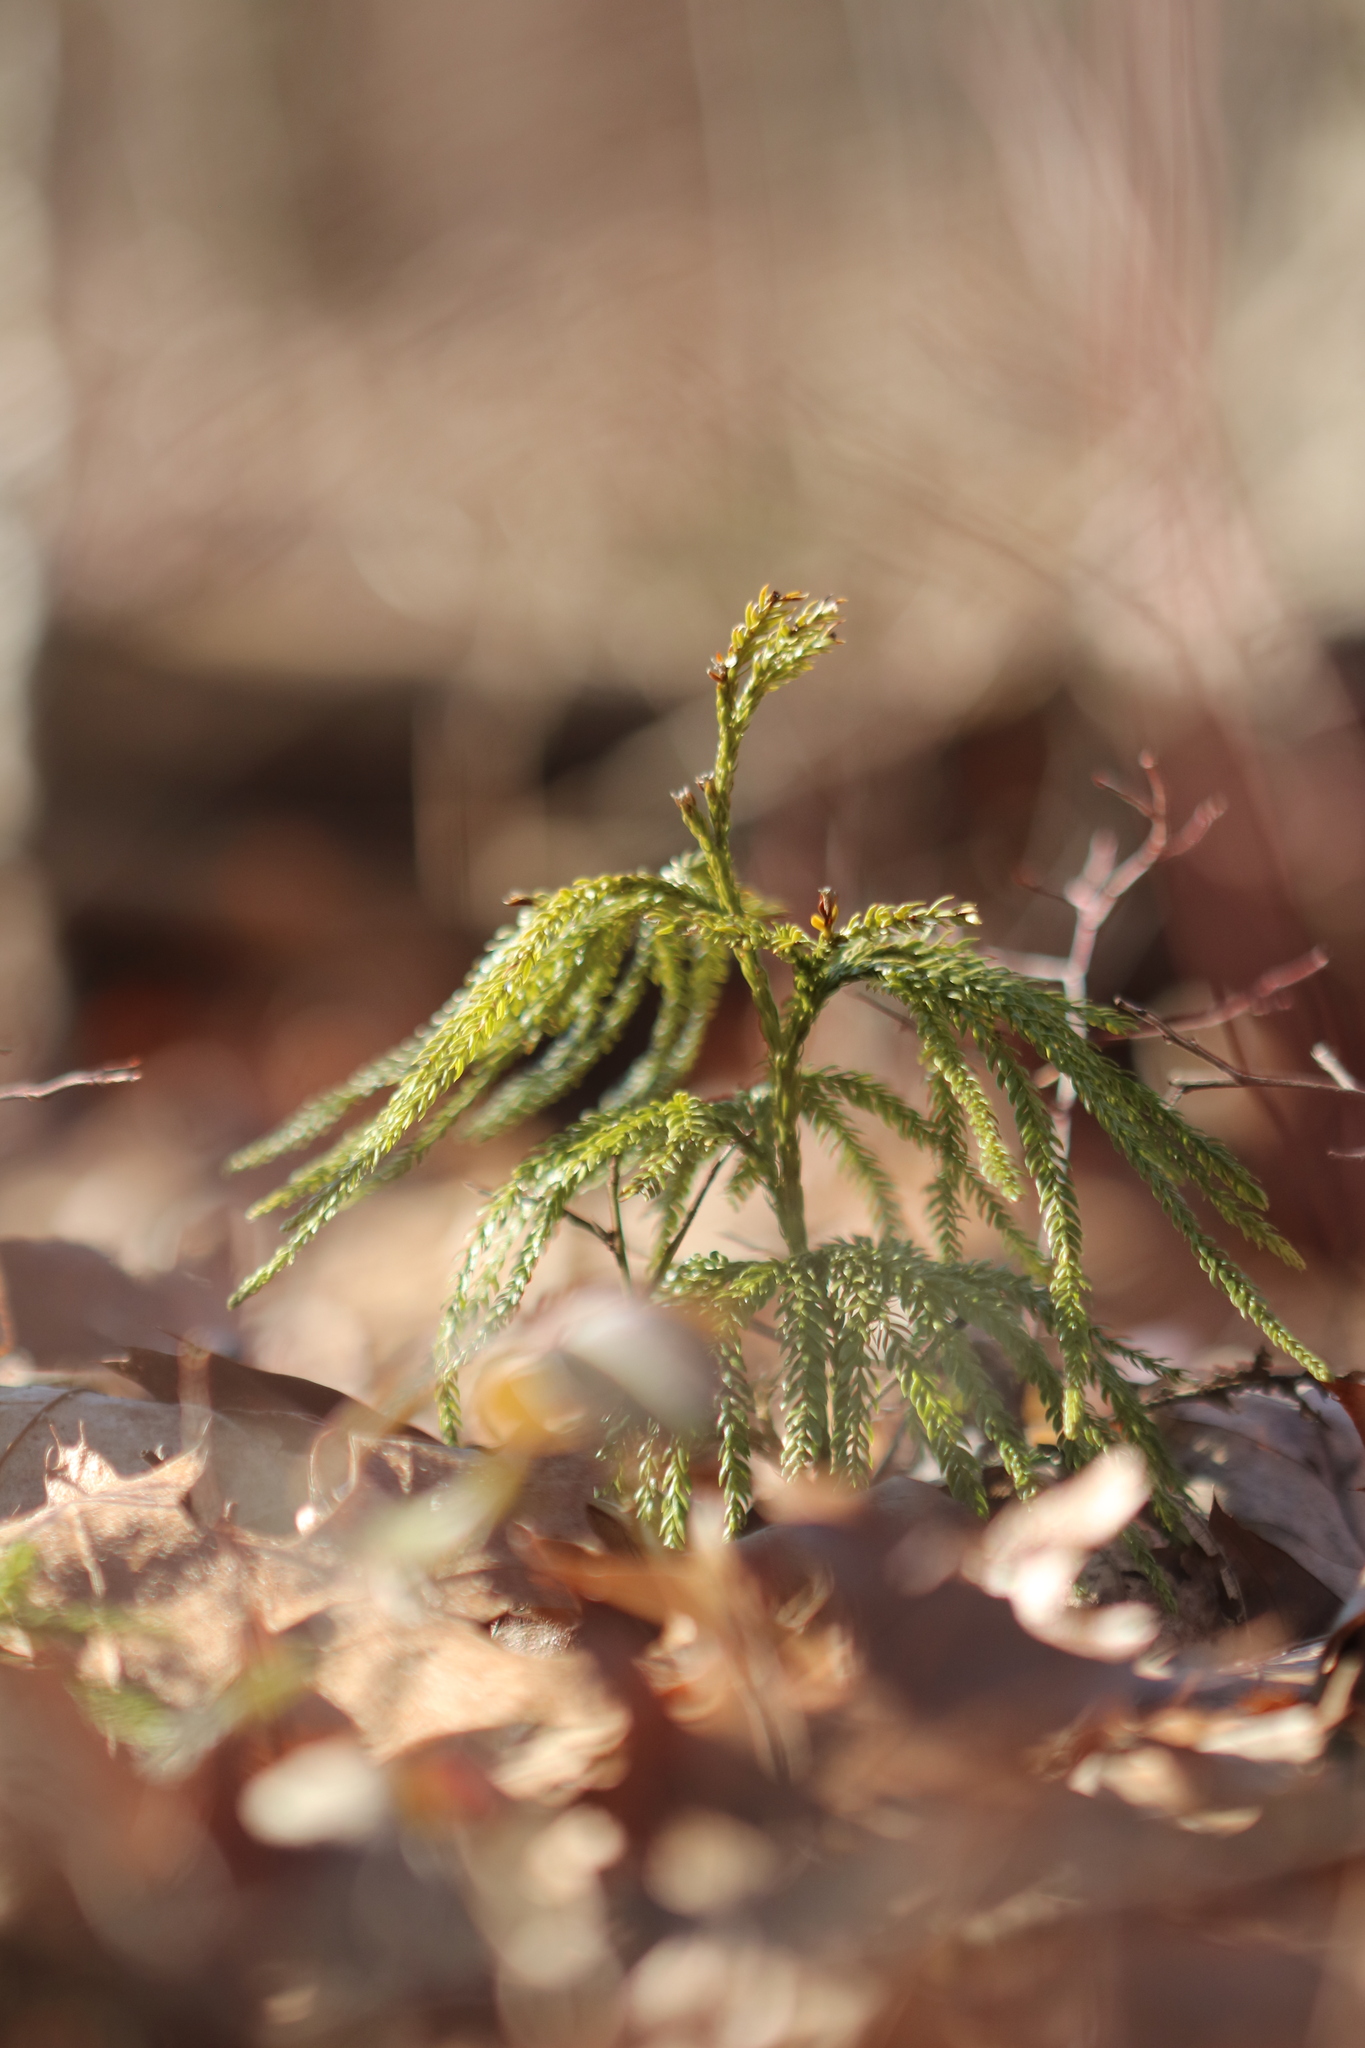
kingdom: Plantae
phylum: Tracheophyta
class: Lycopodiopsida
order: Lycopodiales
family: Lycopodiaceae
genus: Dendrolycopodium
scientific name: Dendrolycopodium obscurum
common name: Common ground-pine
